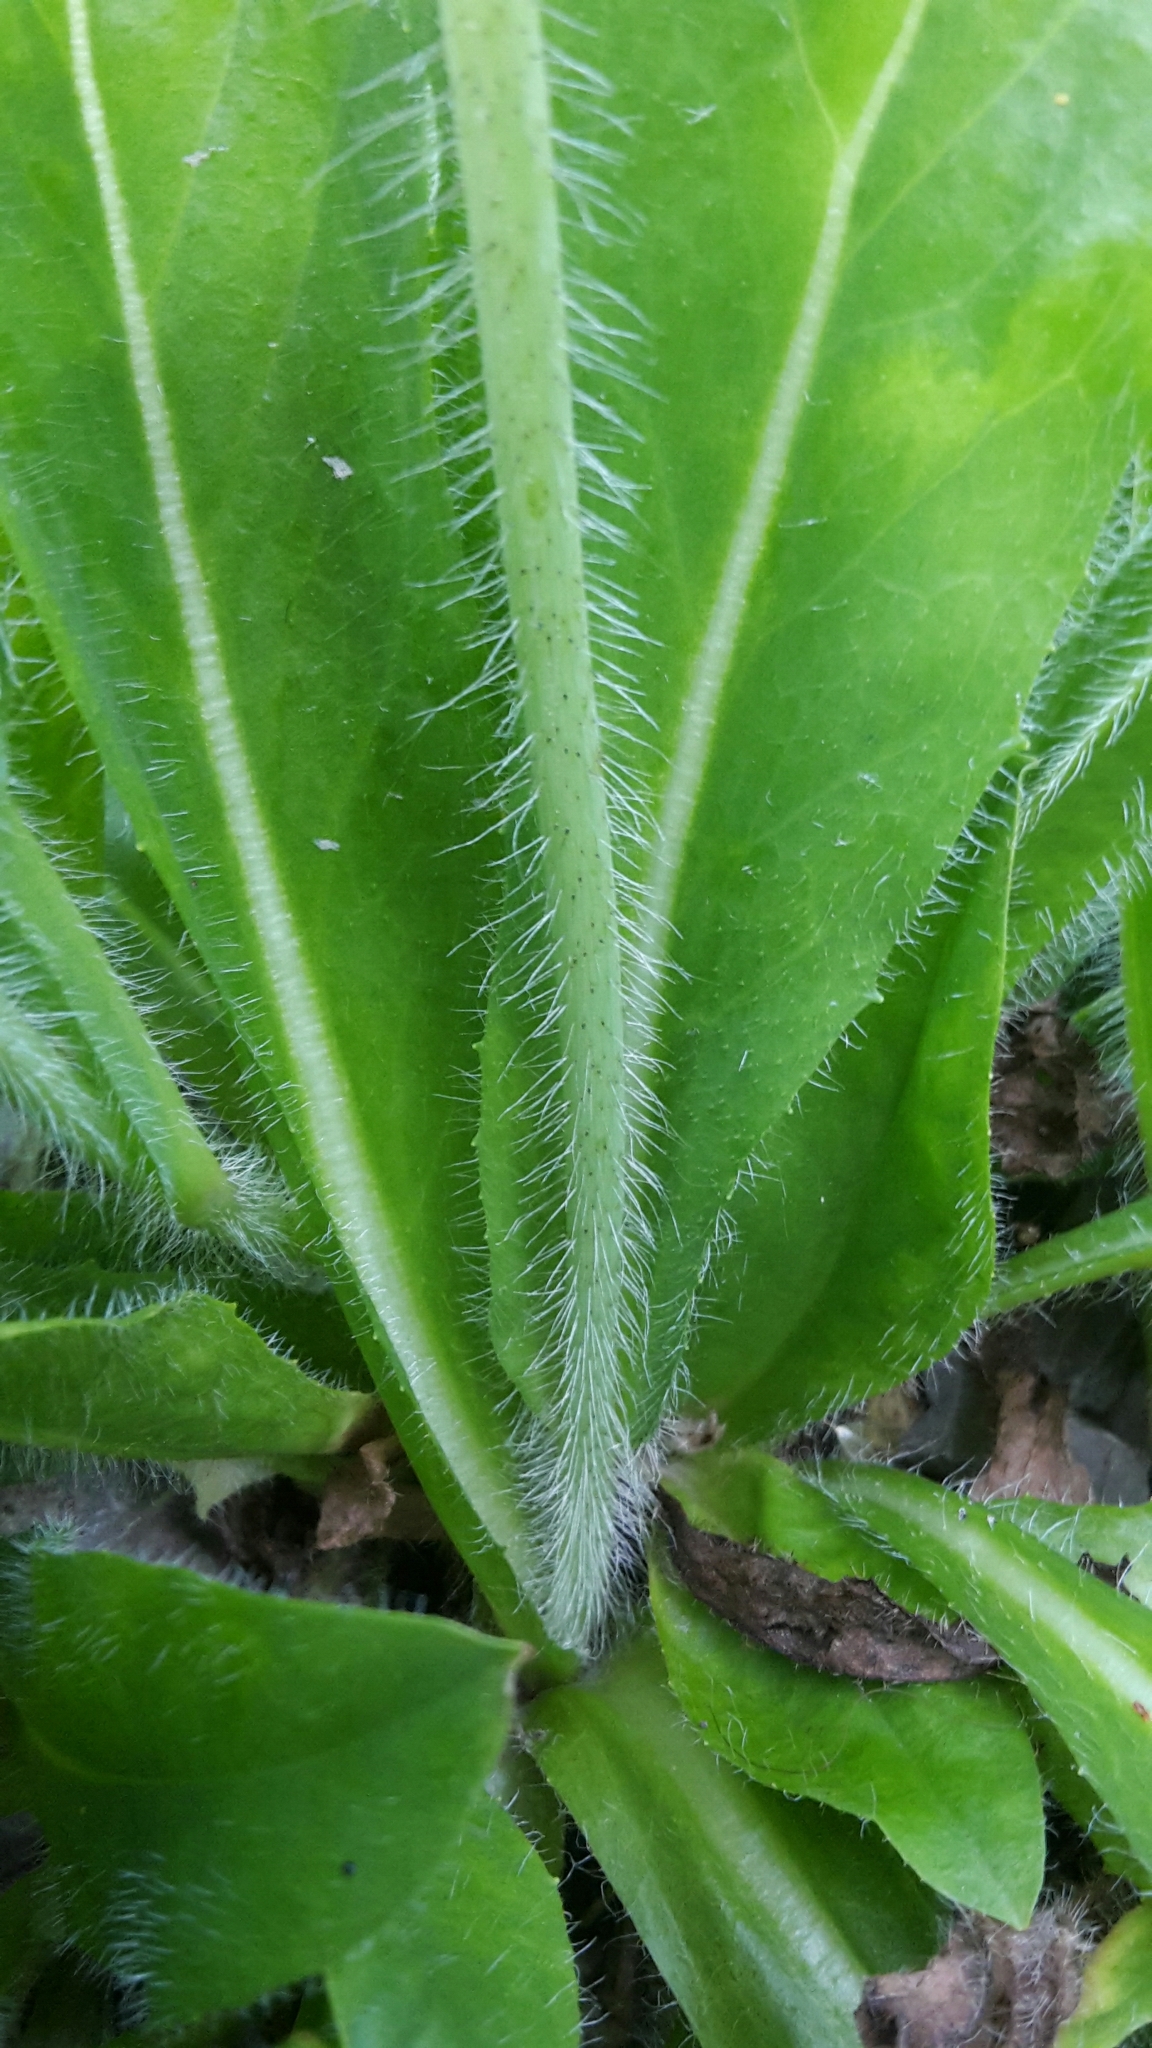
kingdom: Plantae
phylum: Tracheophyta
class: Magnoliopsida
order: Asterales
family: Asteraceae
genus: Pilosella
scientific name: Pilosella aurantiaca
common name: Fox-and-cubs
